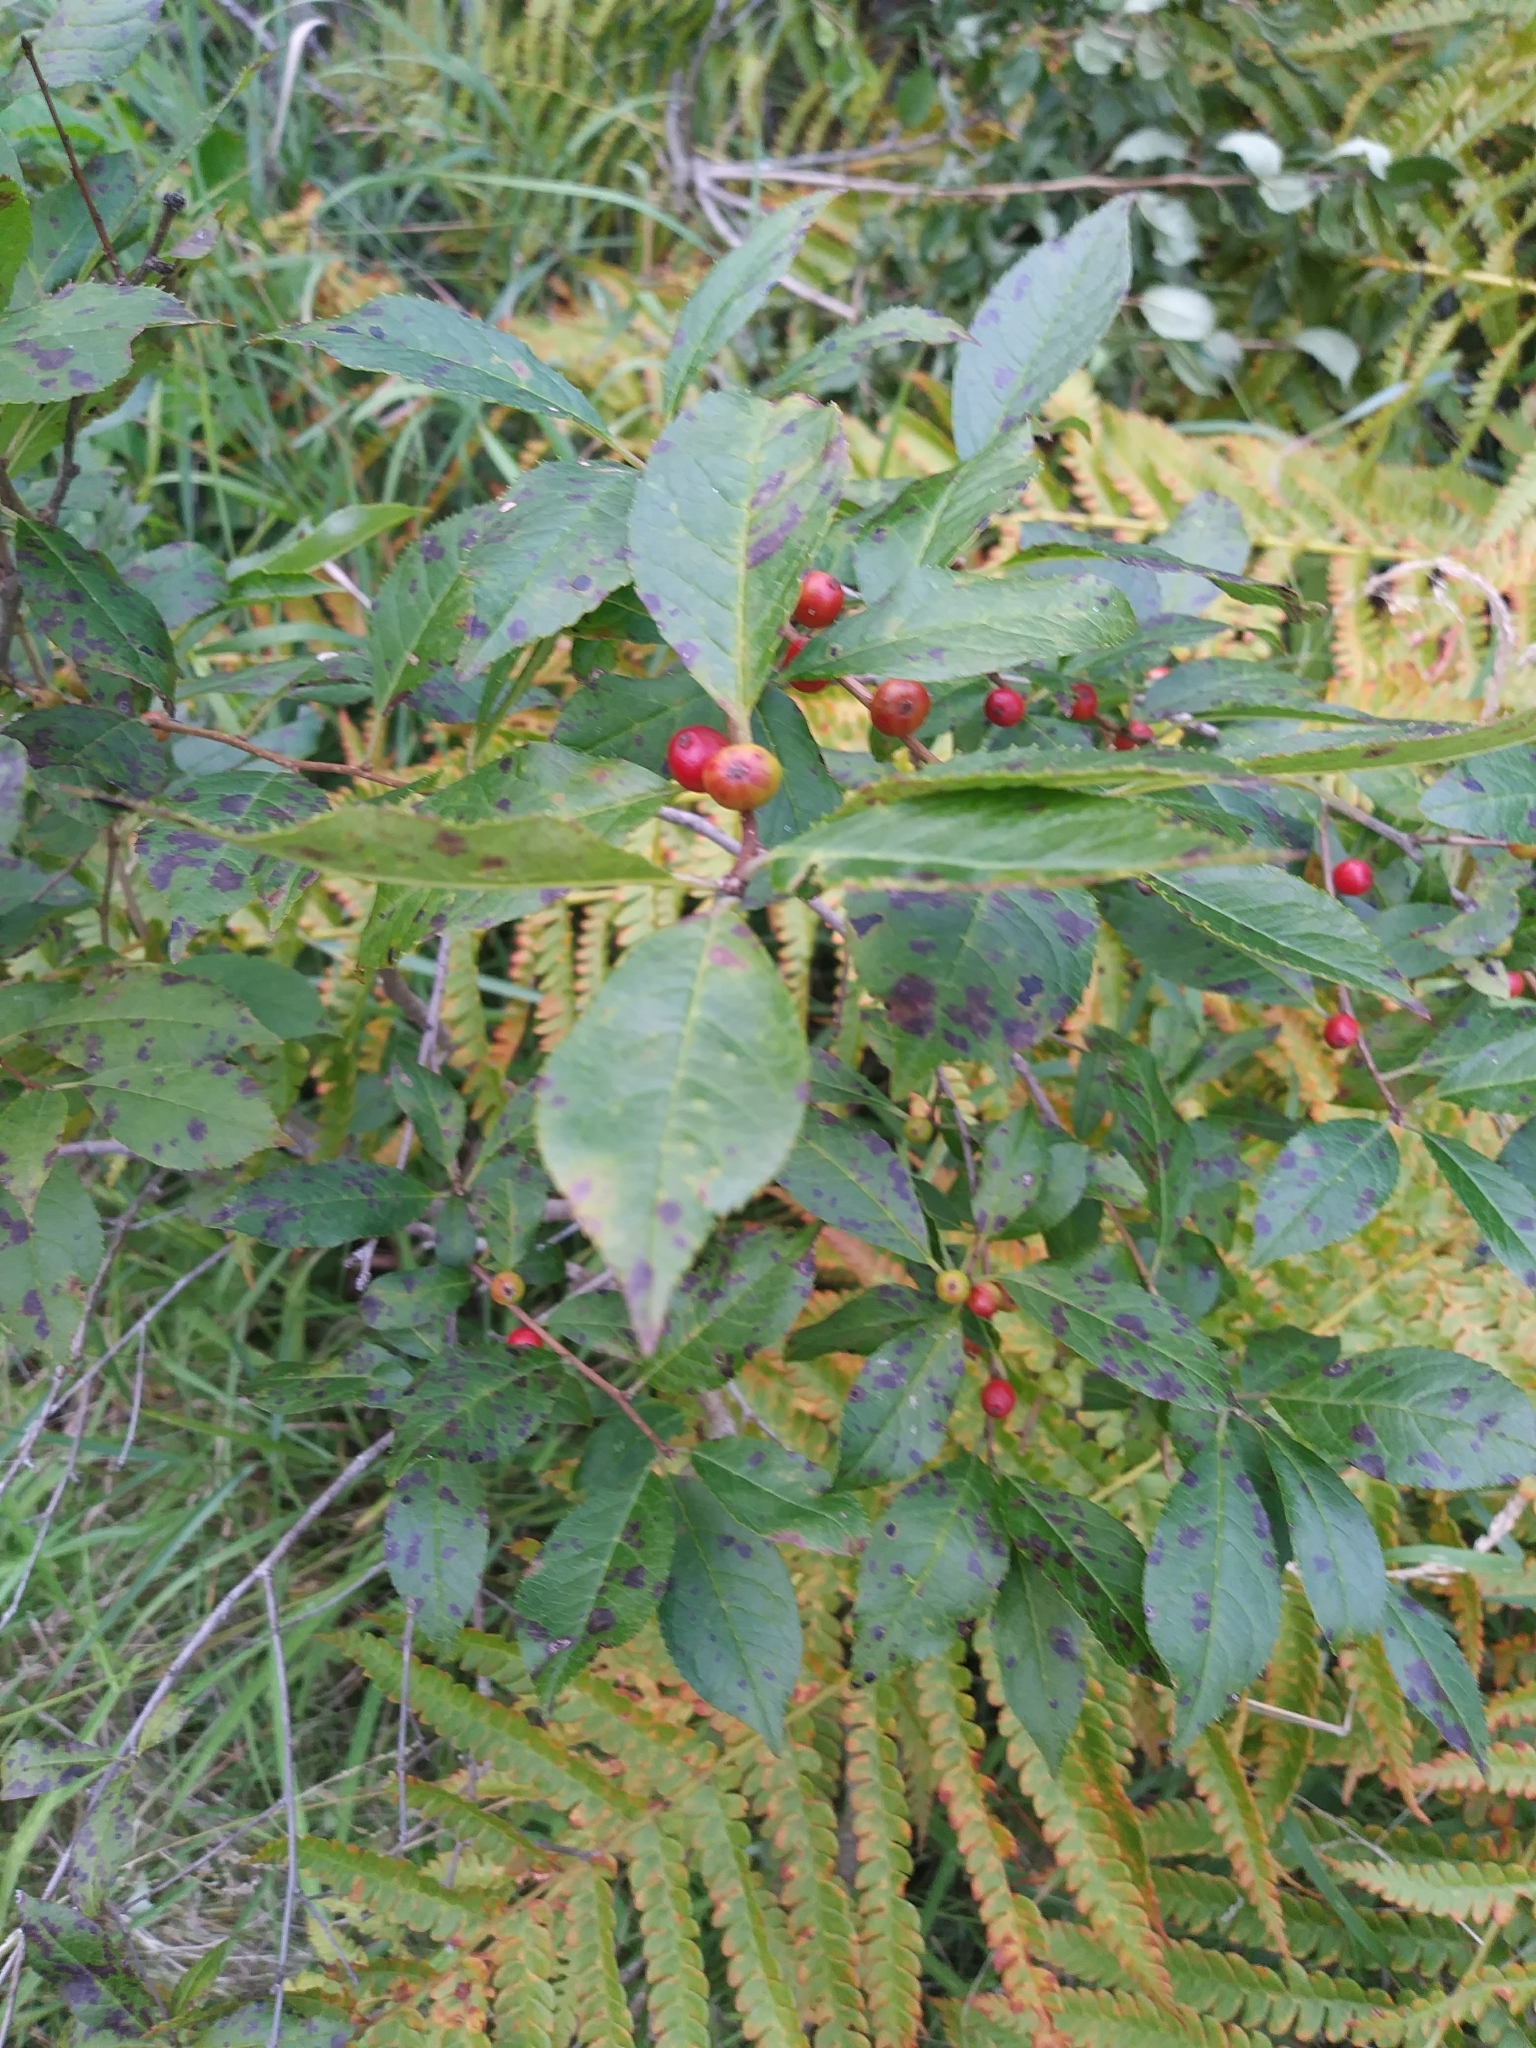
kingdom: Plantae
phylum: Tracheophyta
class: Magnoliopsida
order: Aquifoliales
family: Aquifoliaceae
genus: Ilex
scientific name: Ilex verticillata
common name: Virginia winterberry
